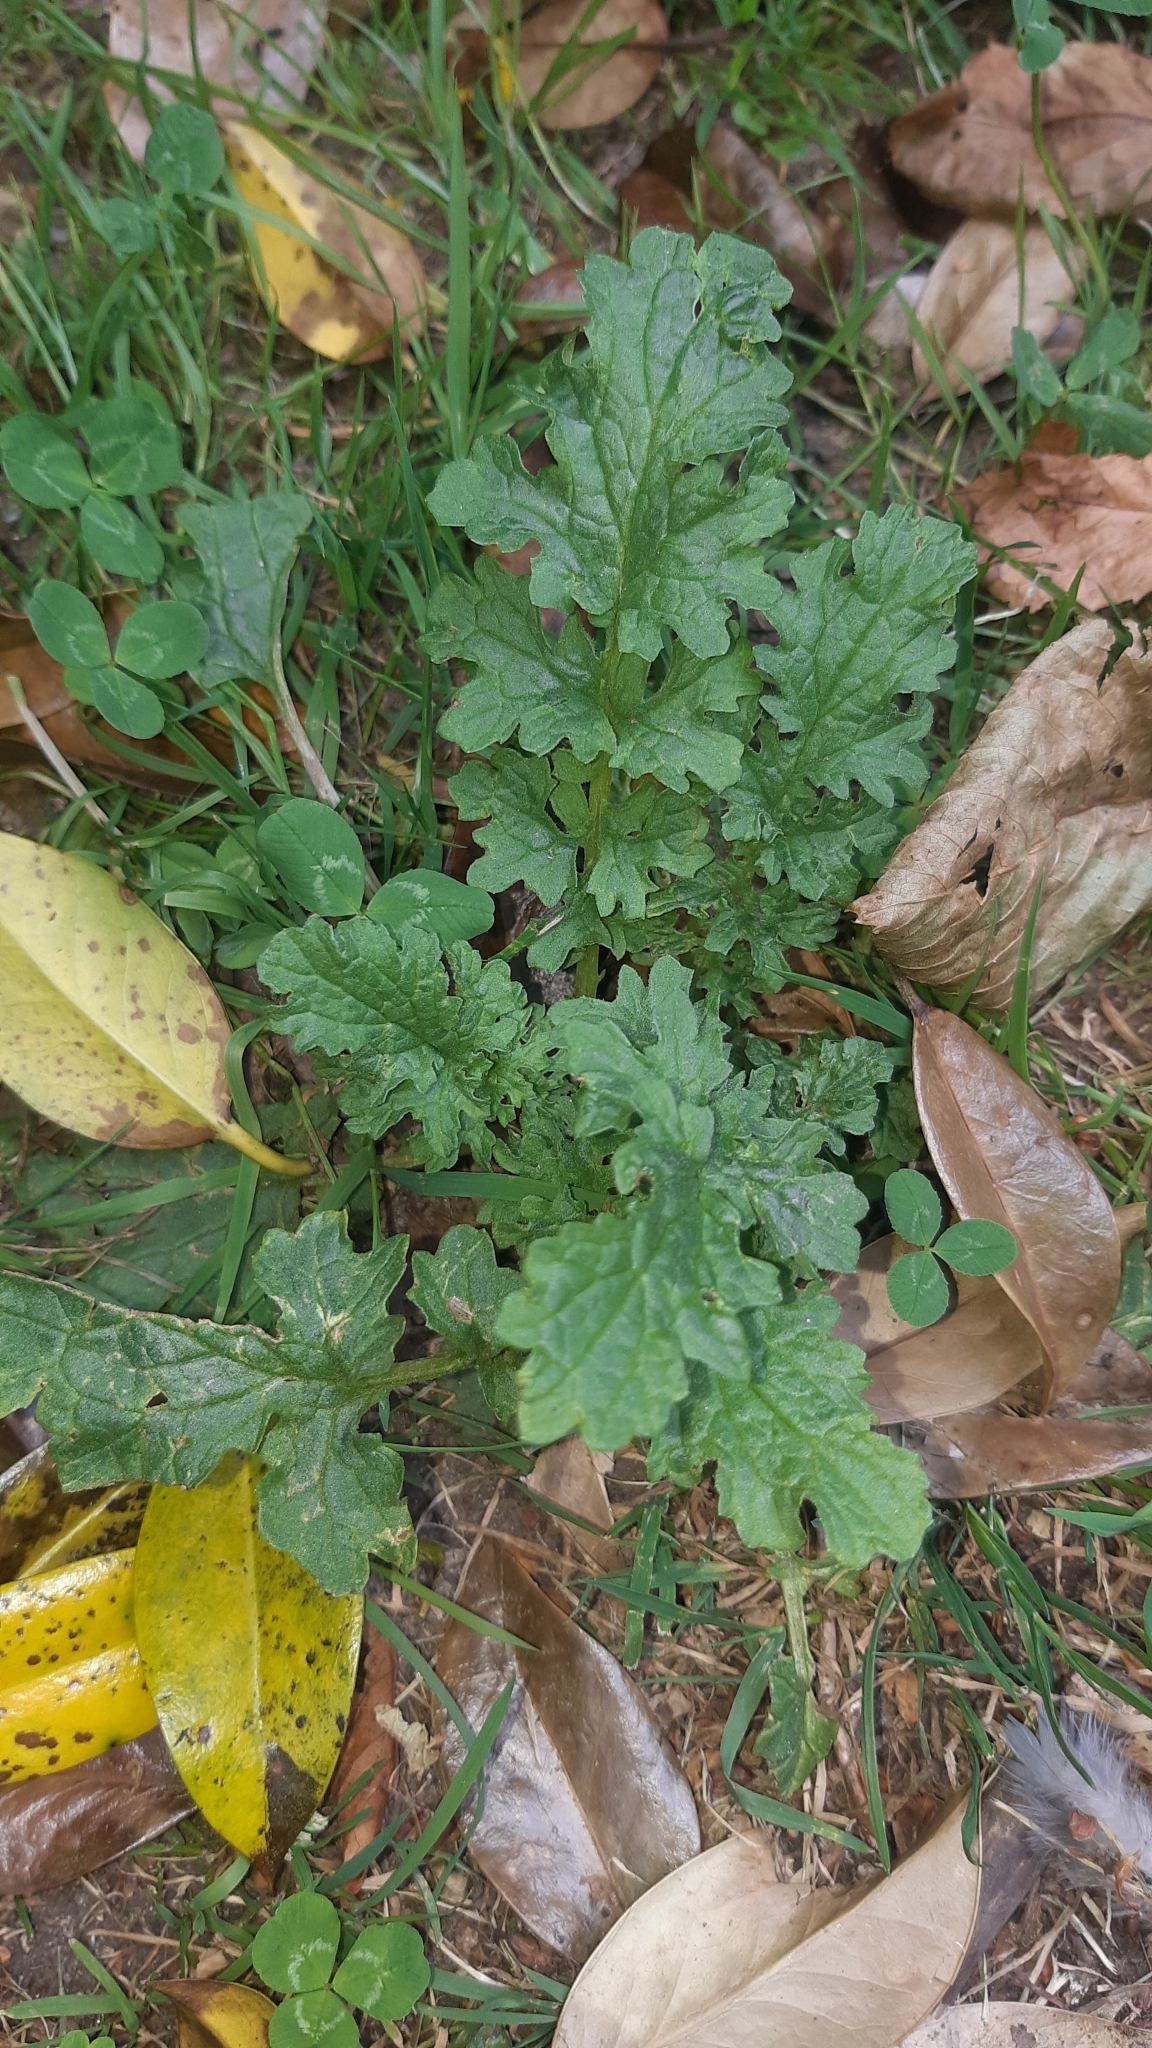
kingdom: Plantae
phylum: Tracheophyta
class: Magnoliopsida
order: Asterales
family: Asteraceae
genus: Jacobaea
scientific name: Jacobaea vulgaris
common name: Stinking willie
